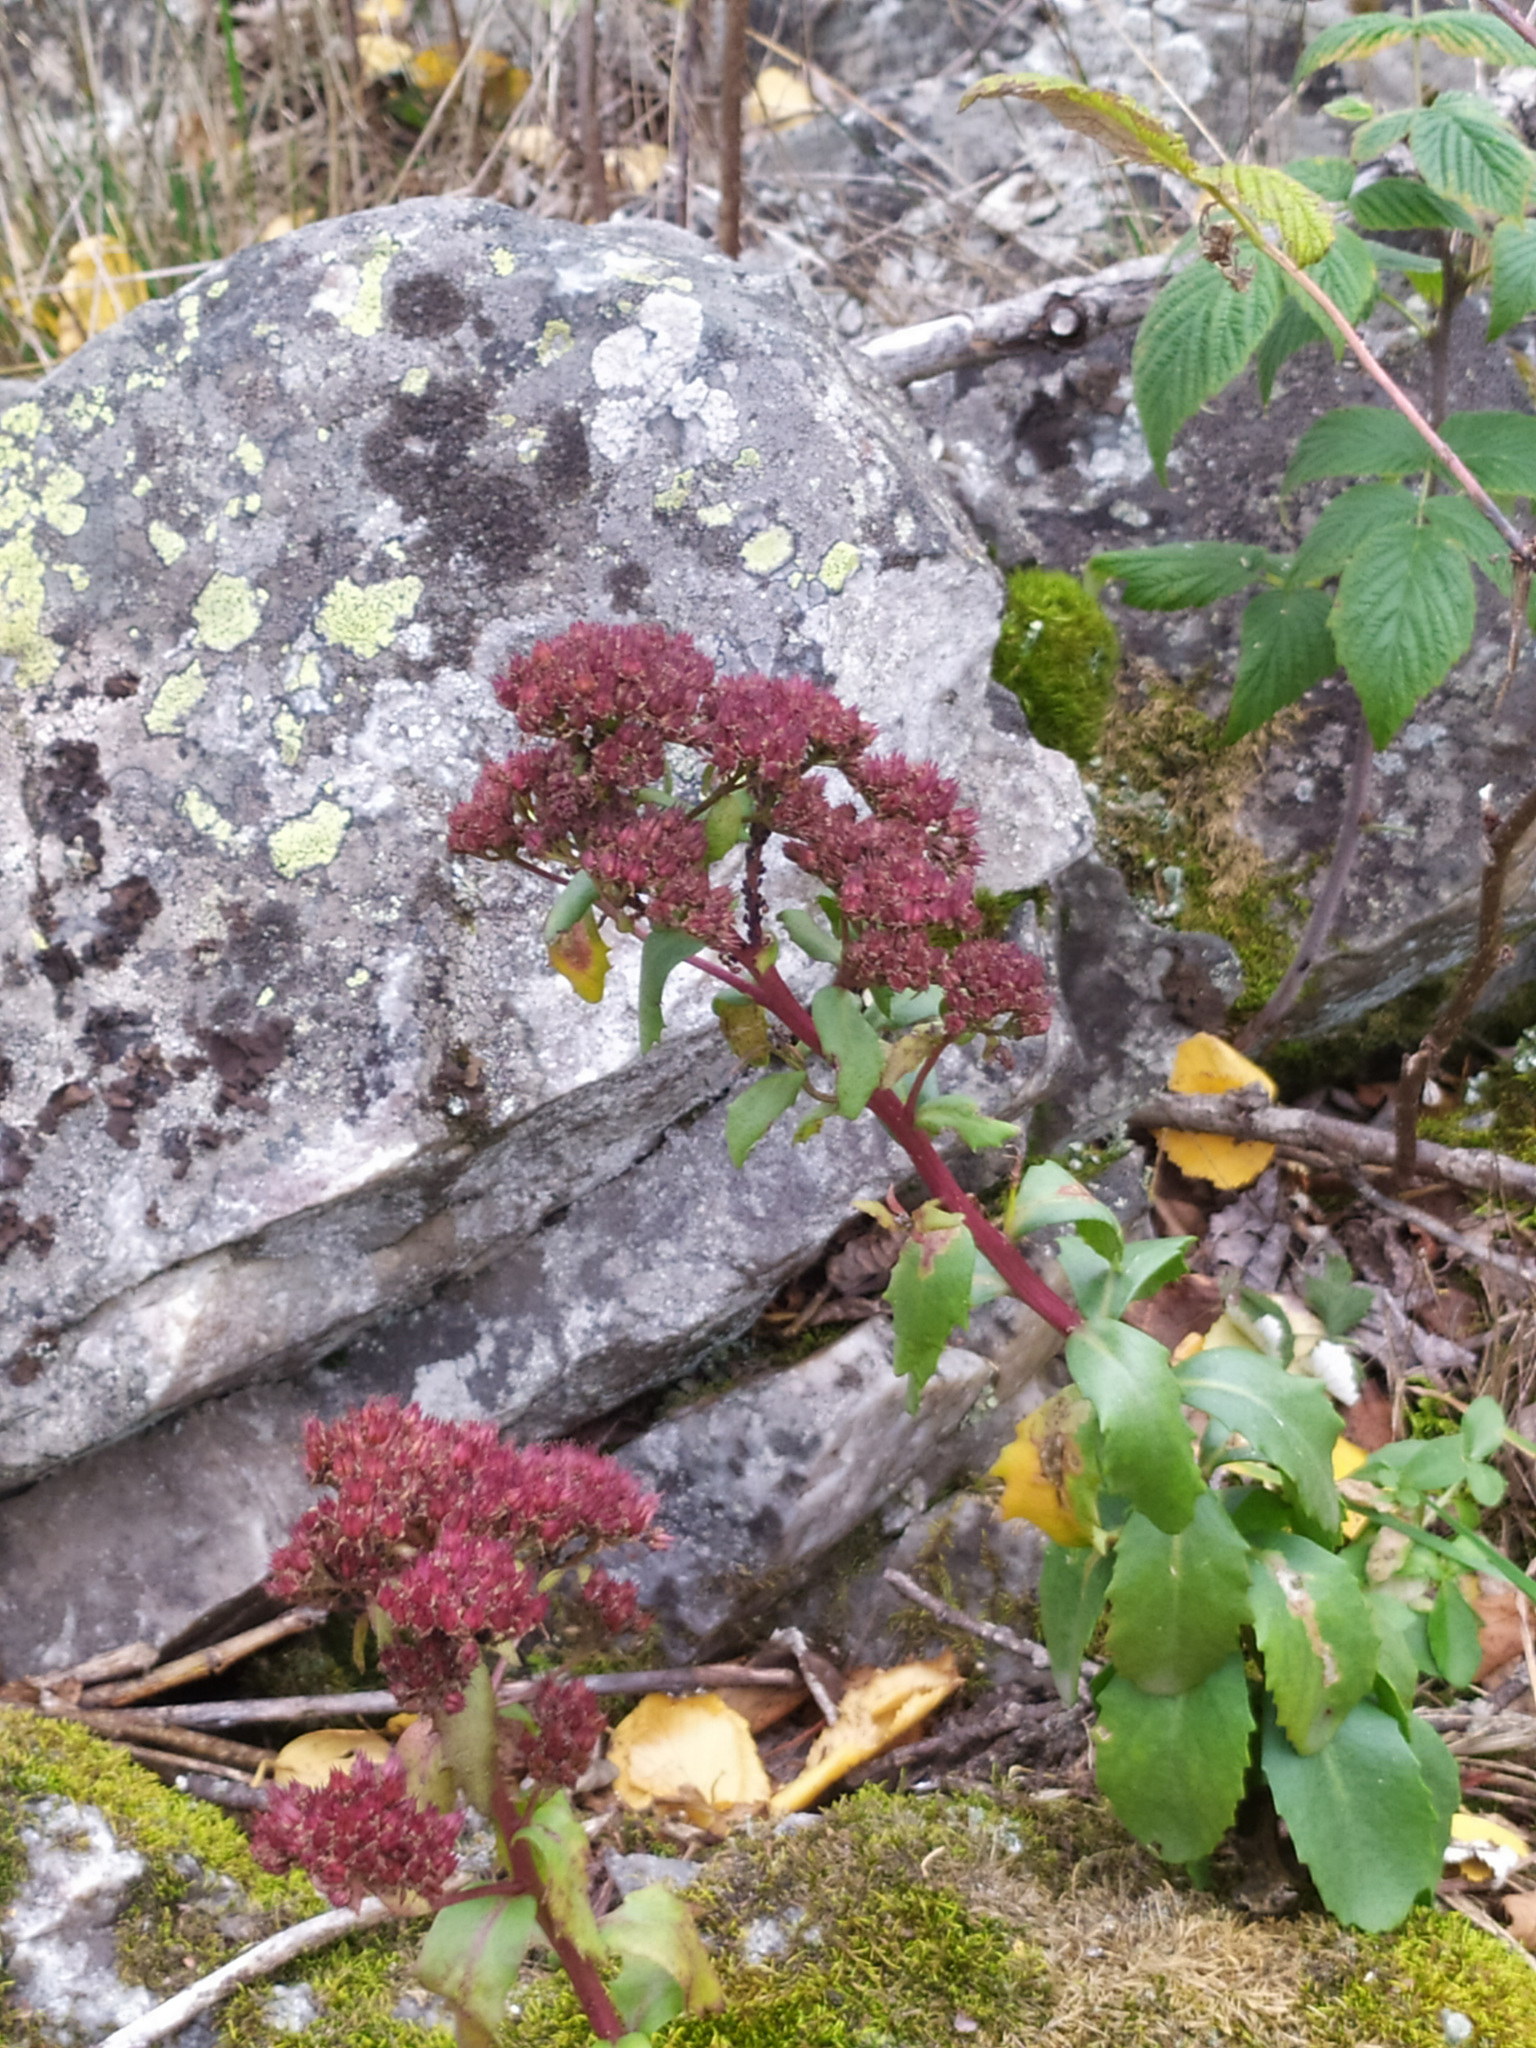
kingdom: Plantae
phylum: Tracheophyta
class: Magnoliopsida
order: Saxifragales
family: Crassulaceae
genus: Hylotelephium
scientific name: Hylotelephium telephium
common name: Live-forever
